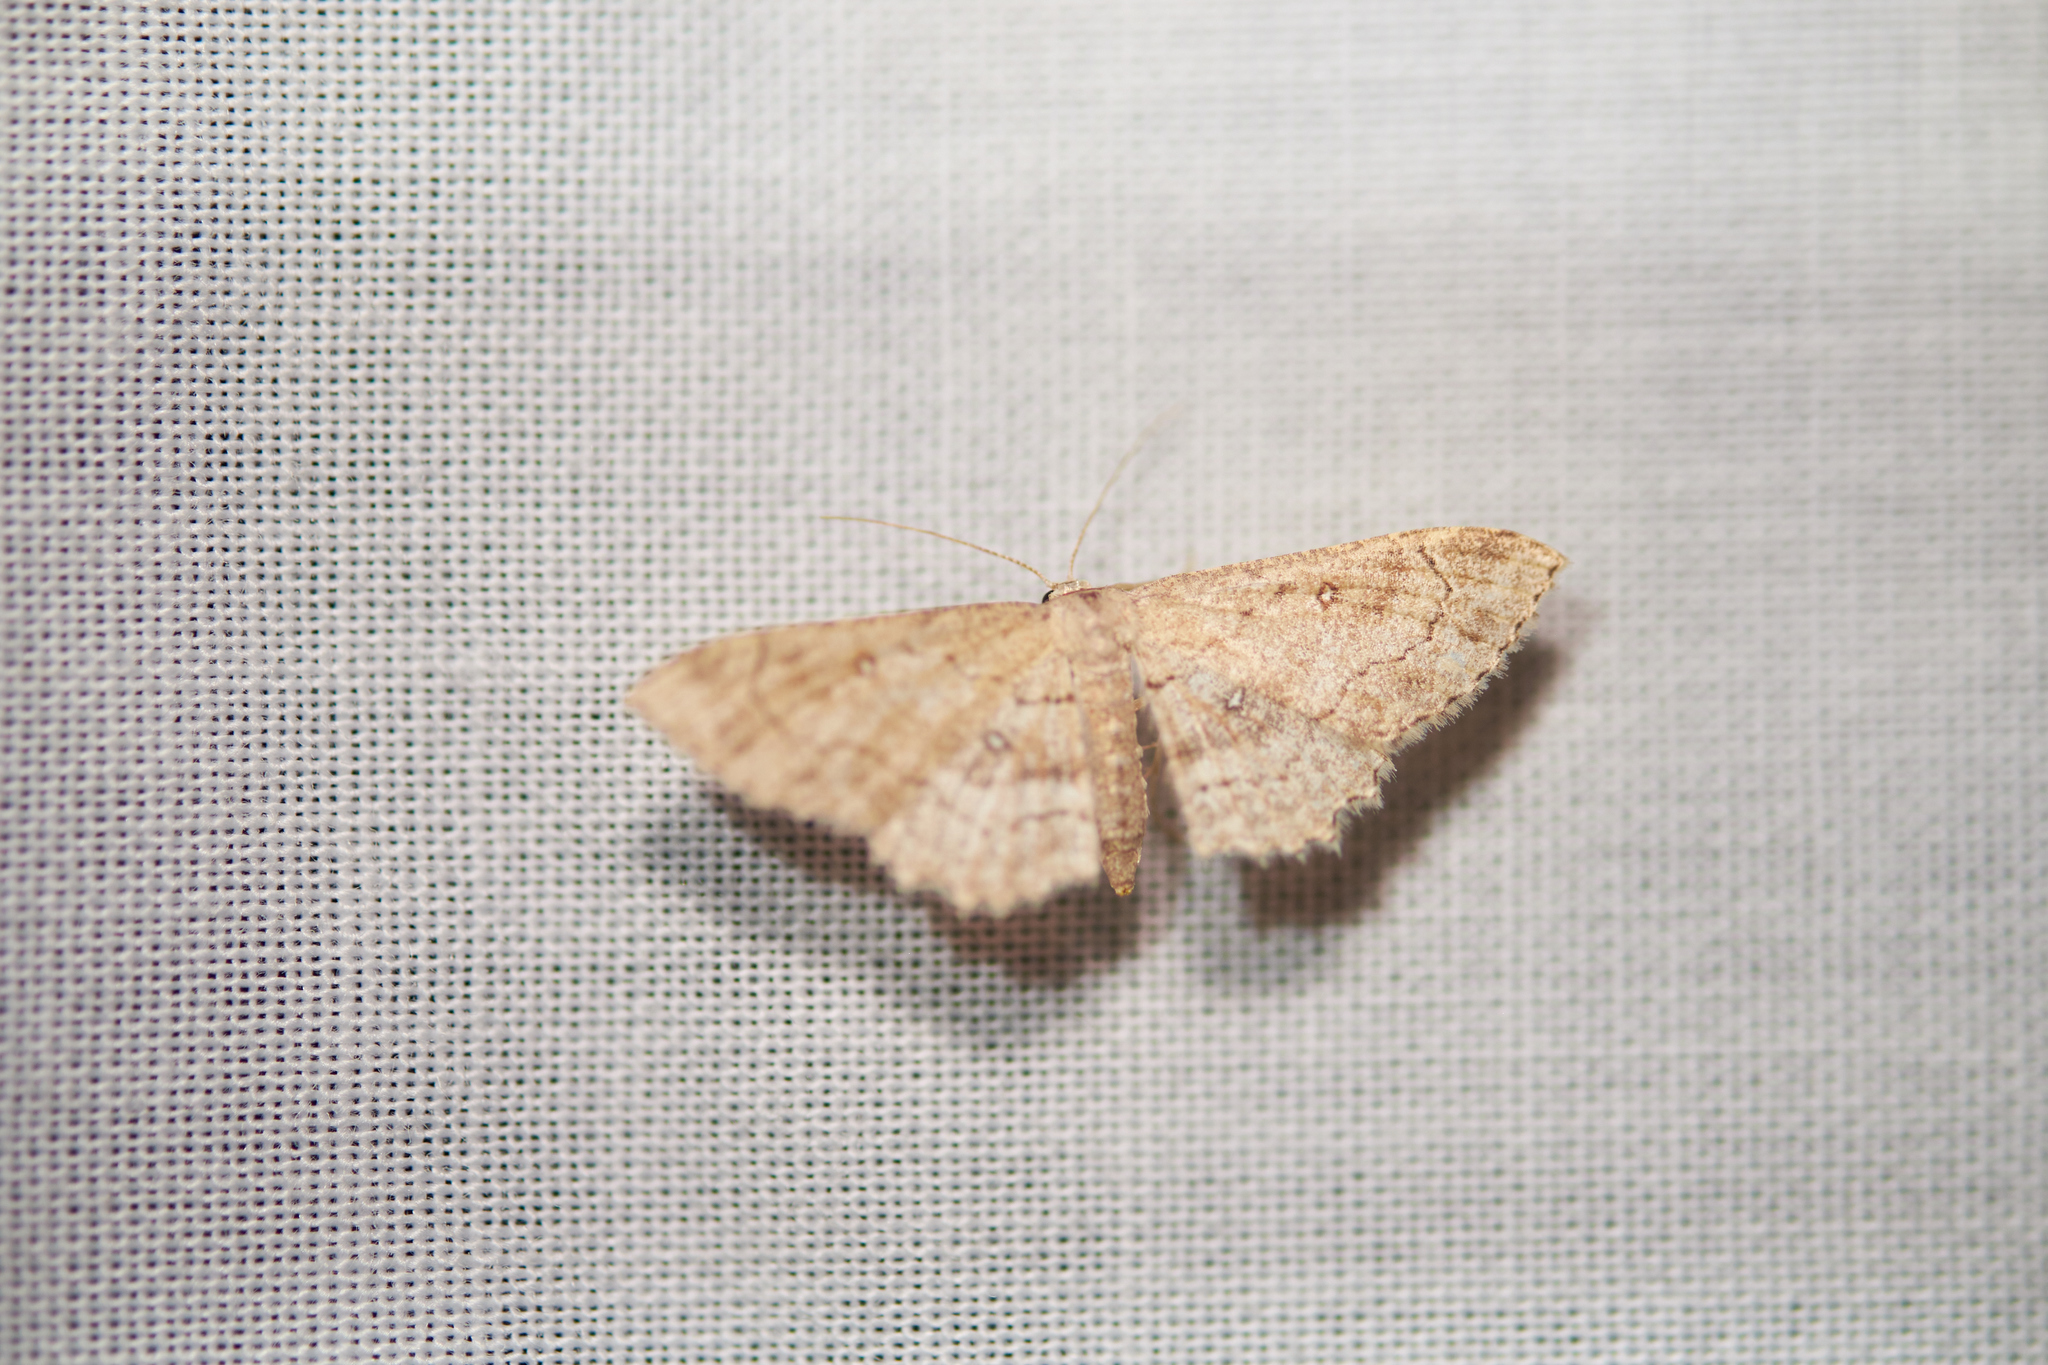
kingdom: Animalia
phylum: Arthropoda
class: Insecta
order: Lepidoptera
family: Geometridae
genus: Cyclophora
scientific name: Cyclophora nanaria
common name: Cankerworm
